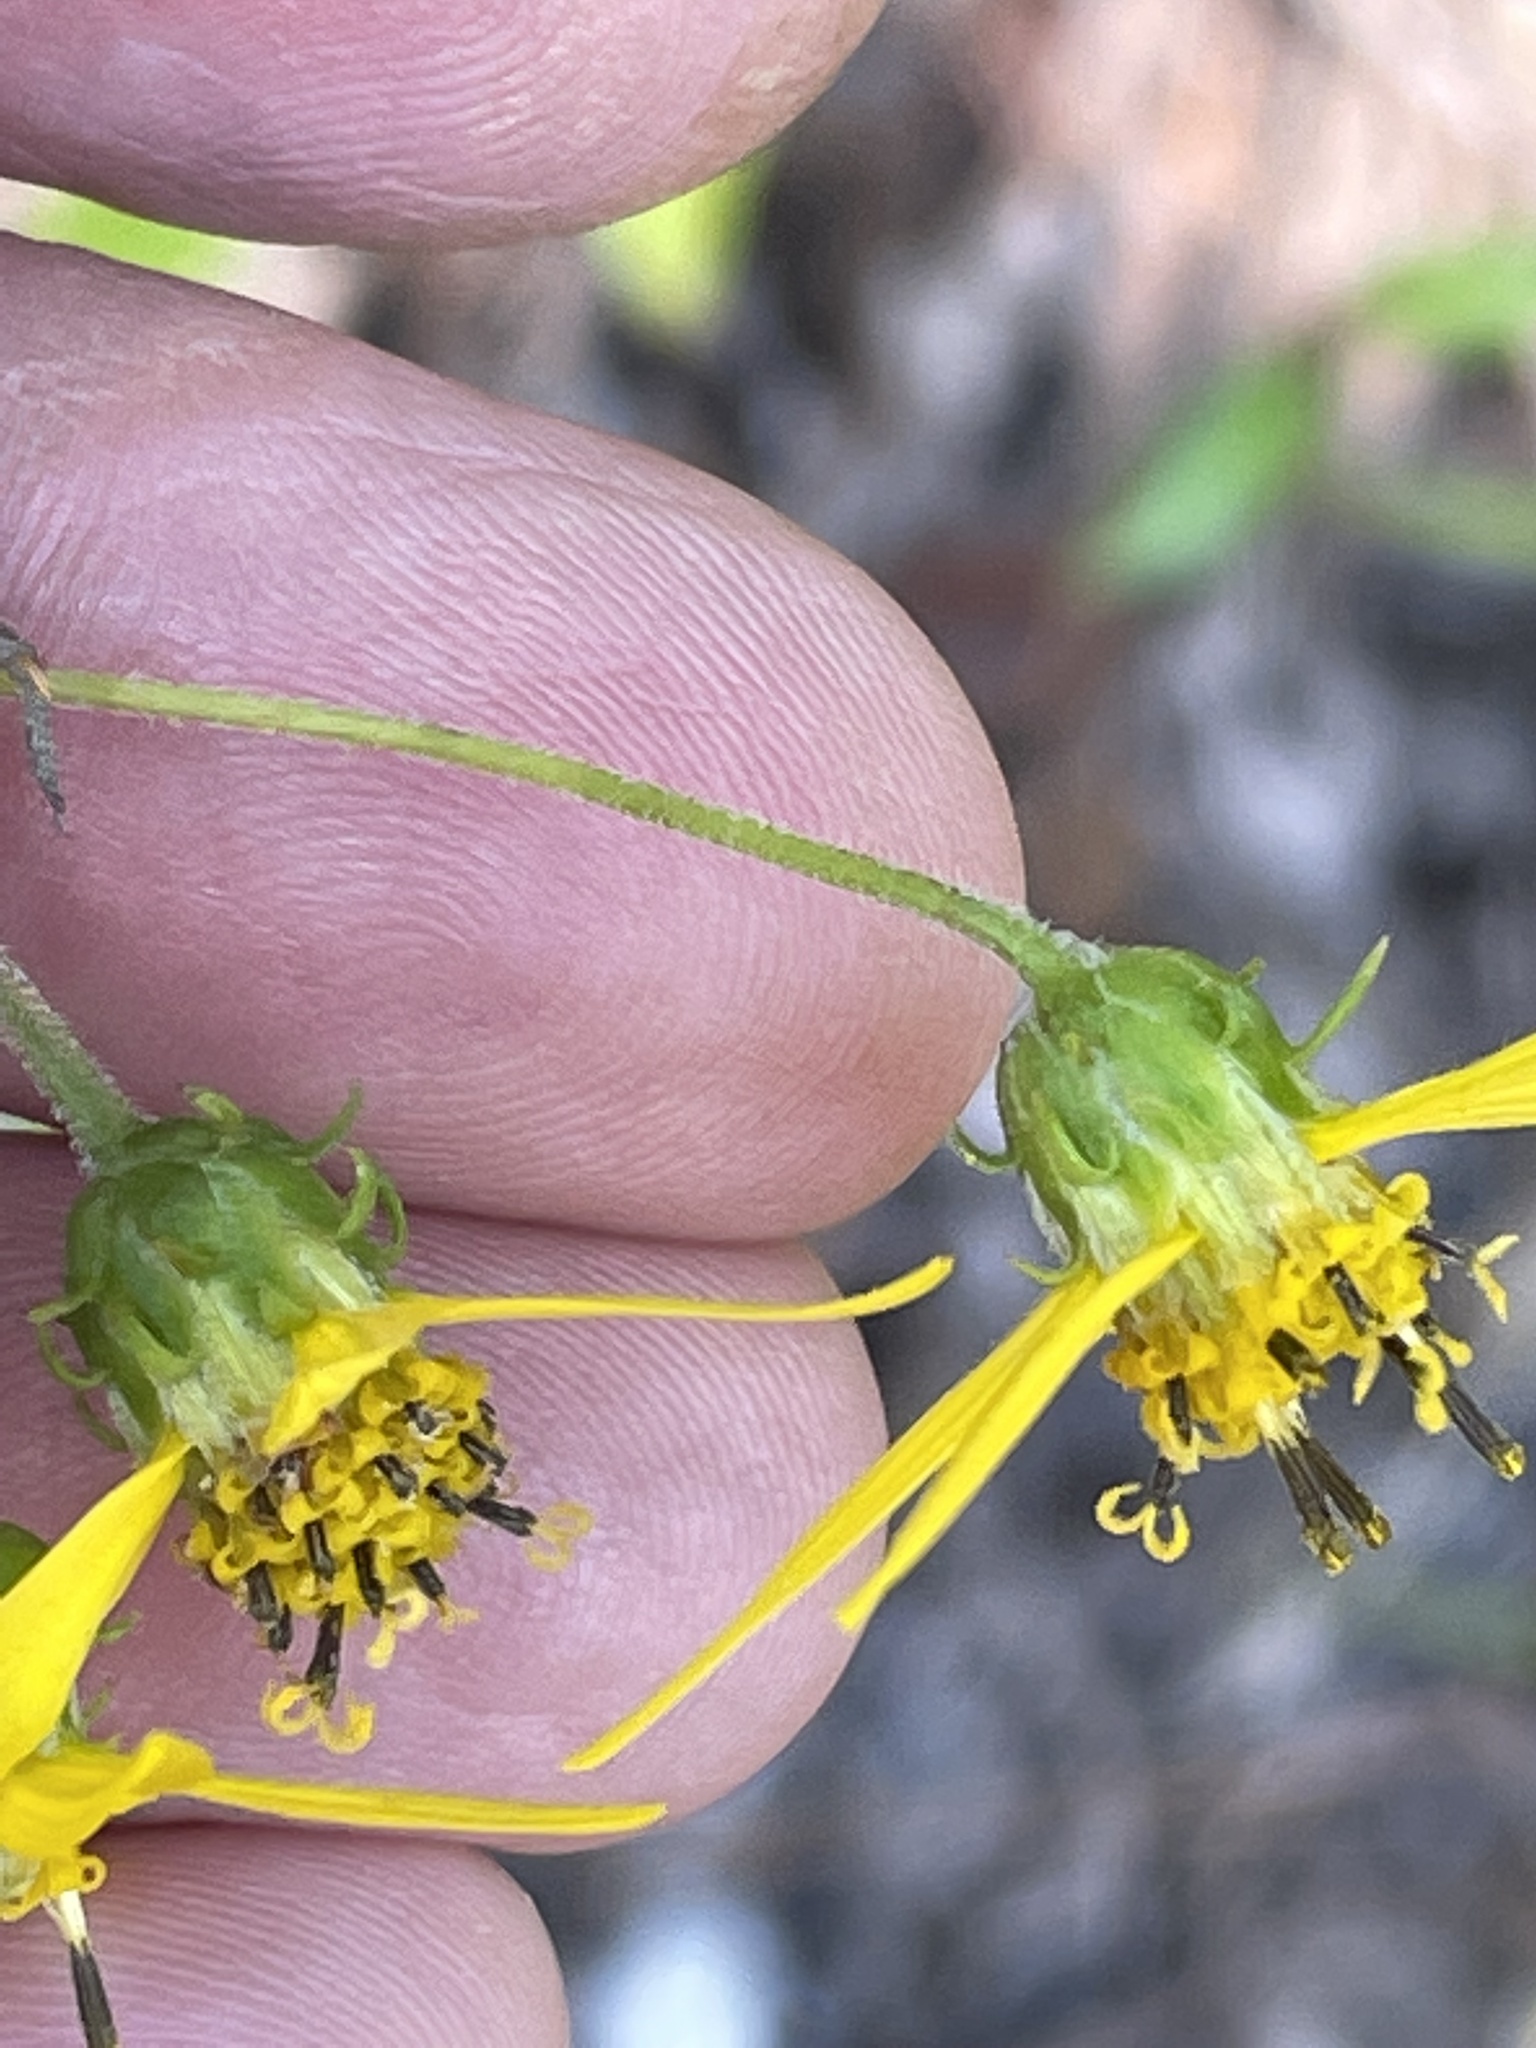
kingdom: Plantae
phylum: Tracheophyta
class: Magnoliopsida
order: Asterales
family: Asteraceae
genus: Helianthus
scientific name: Helianthus microcephalus
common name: Woodland sunflower
